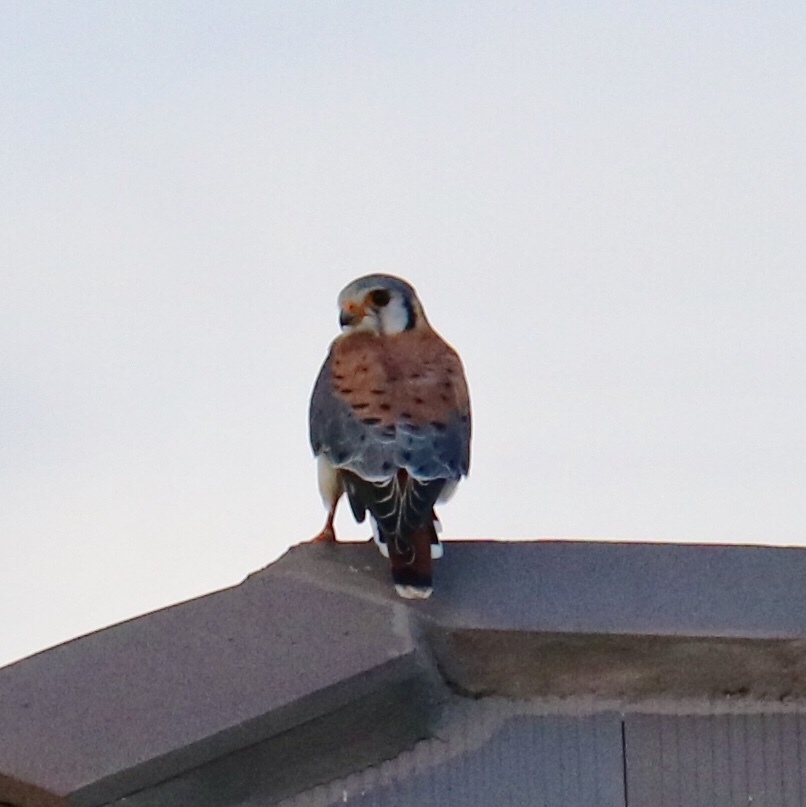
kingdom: Animalia
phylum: Chordata
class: Aves
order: Falconiformes
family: Falconidae
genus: Falco
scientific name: Falco sparverius
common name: American kestrel
